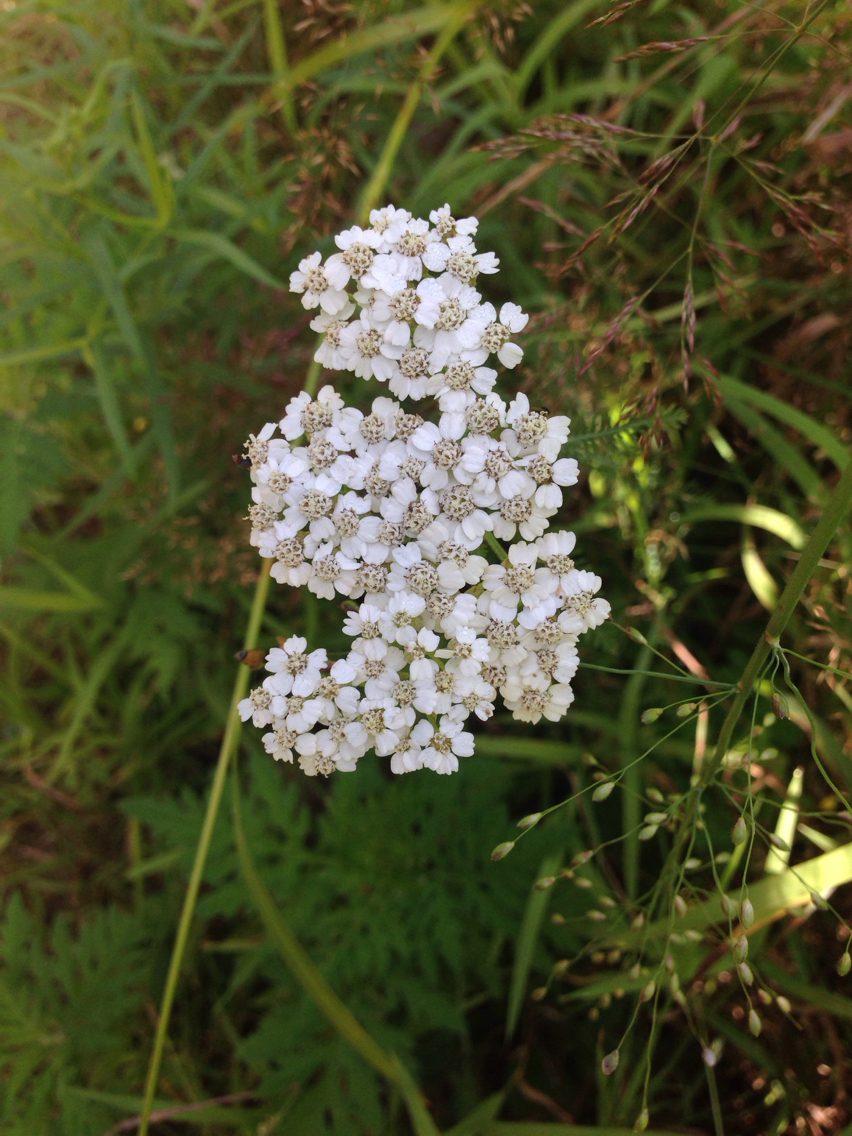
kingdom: Plantae
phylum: Tracheophyta
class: Magnoliopsida
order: Asterales
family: Asteraceae
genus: Achillea
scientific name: Achillea millefolium
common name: Yarrow
